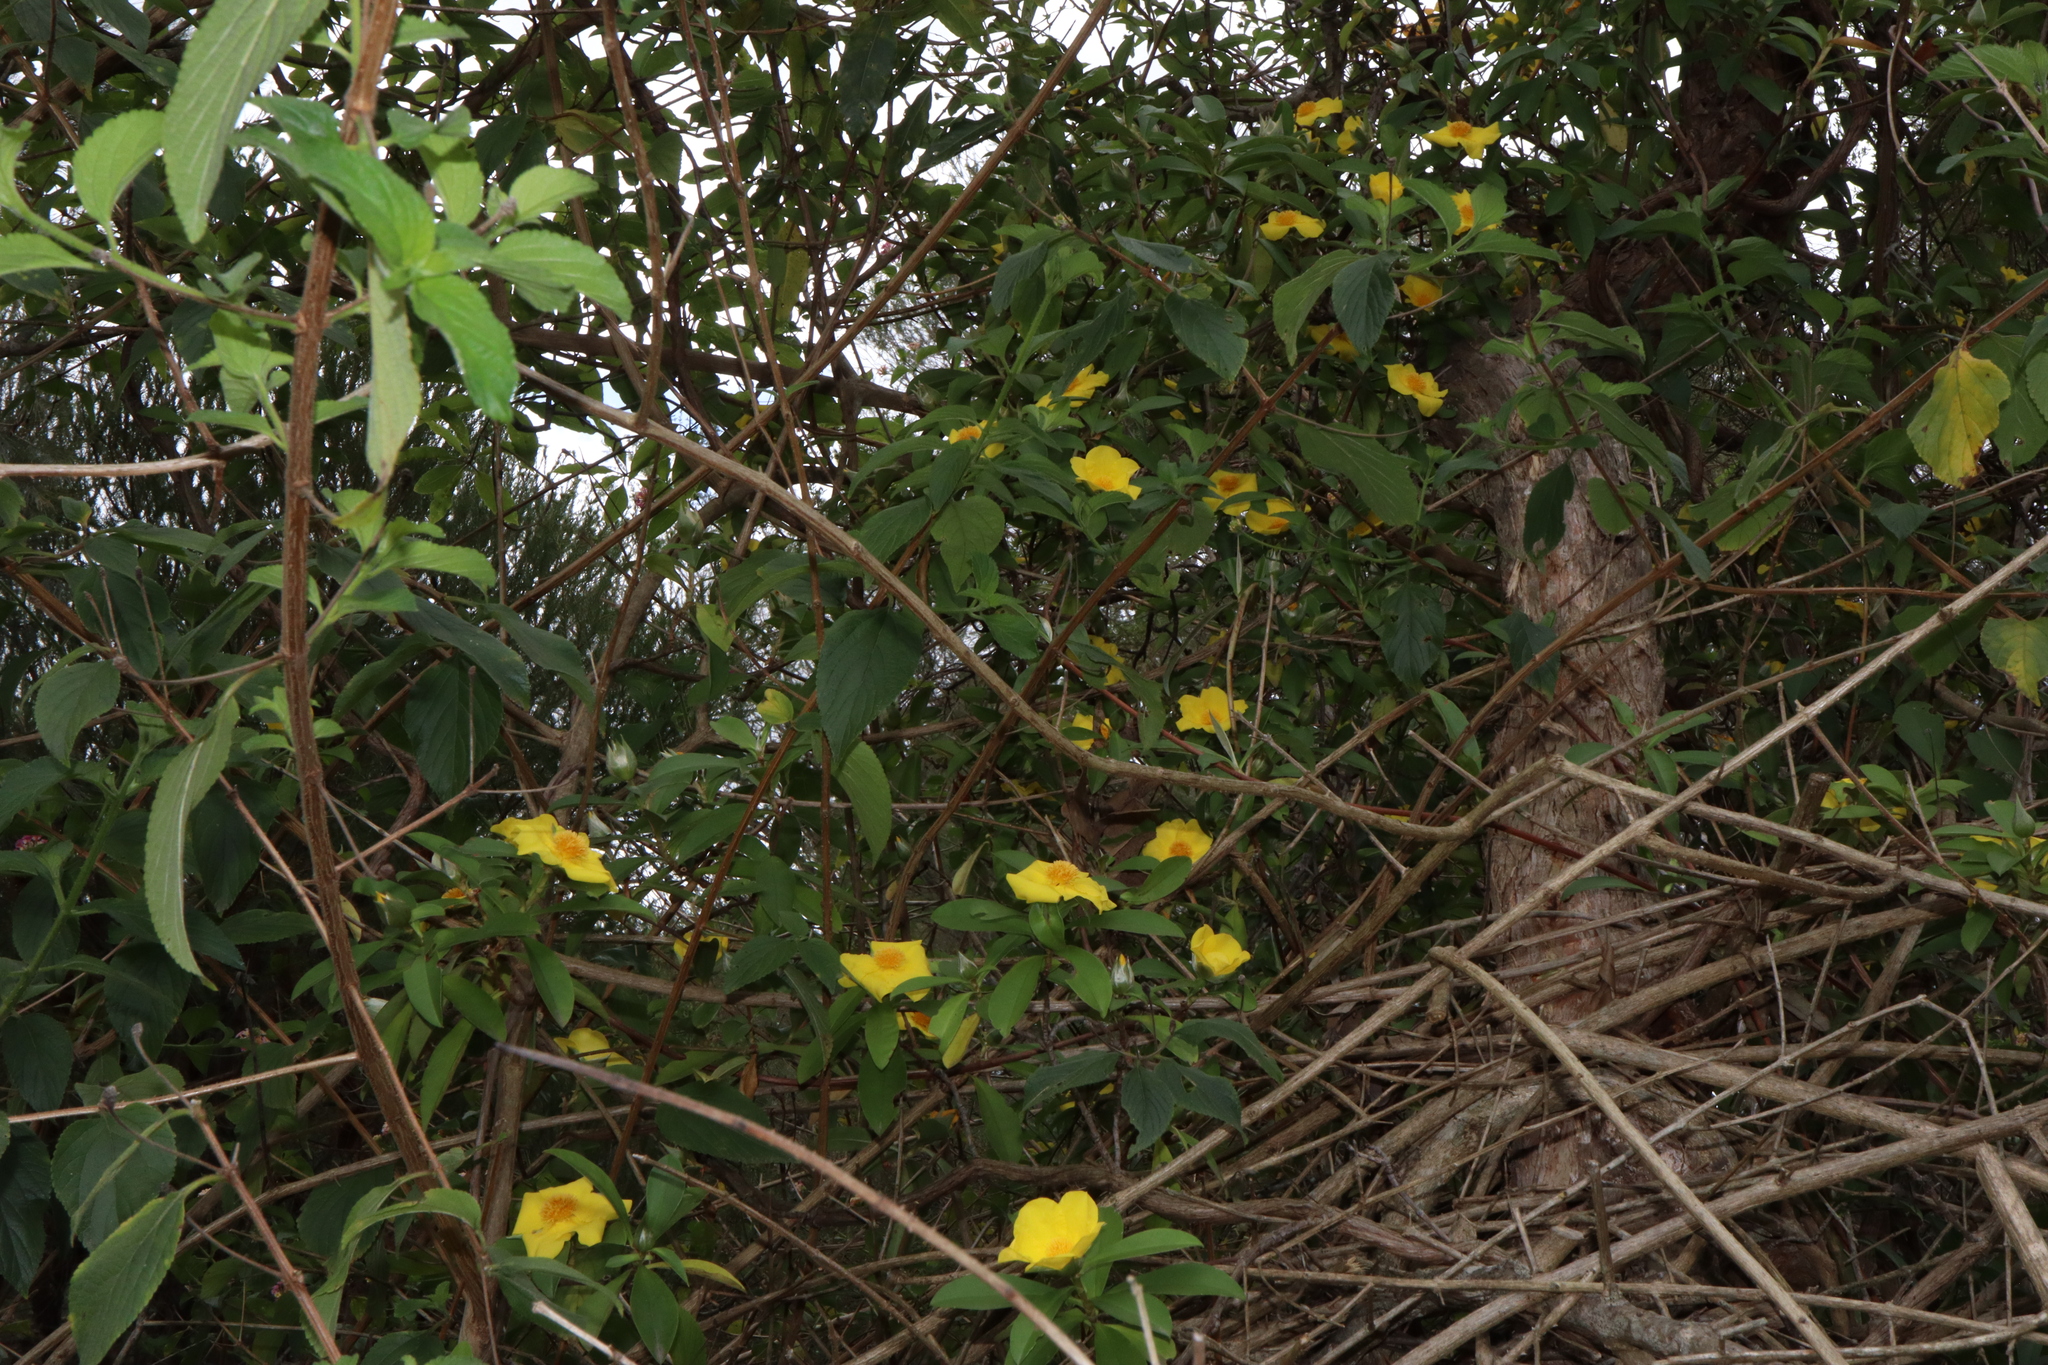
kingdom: Plantae
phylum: Tracheophyta
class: Magnoliopsida
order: Dilleniales
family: Dilleniaceae
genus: Hibbertia
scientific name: Hibbertia scandens
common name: Climbing guinea-flower
